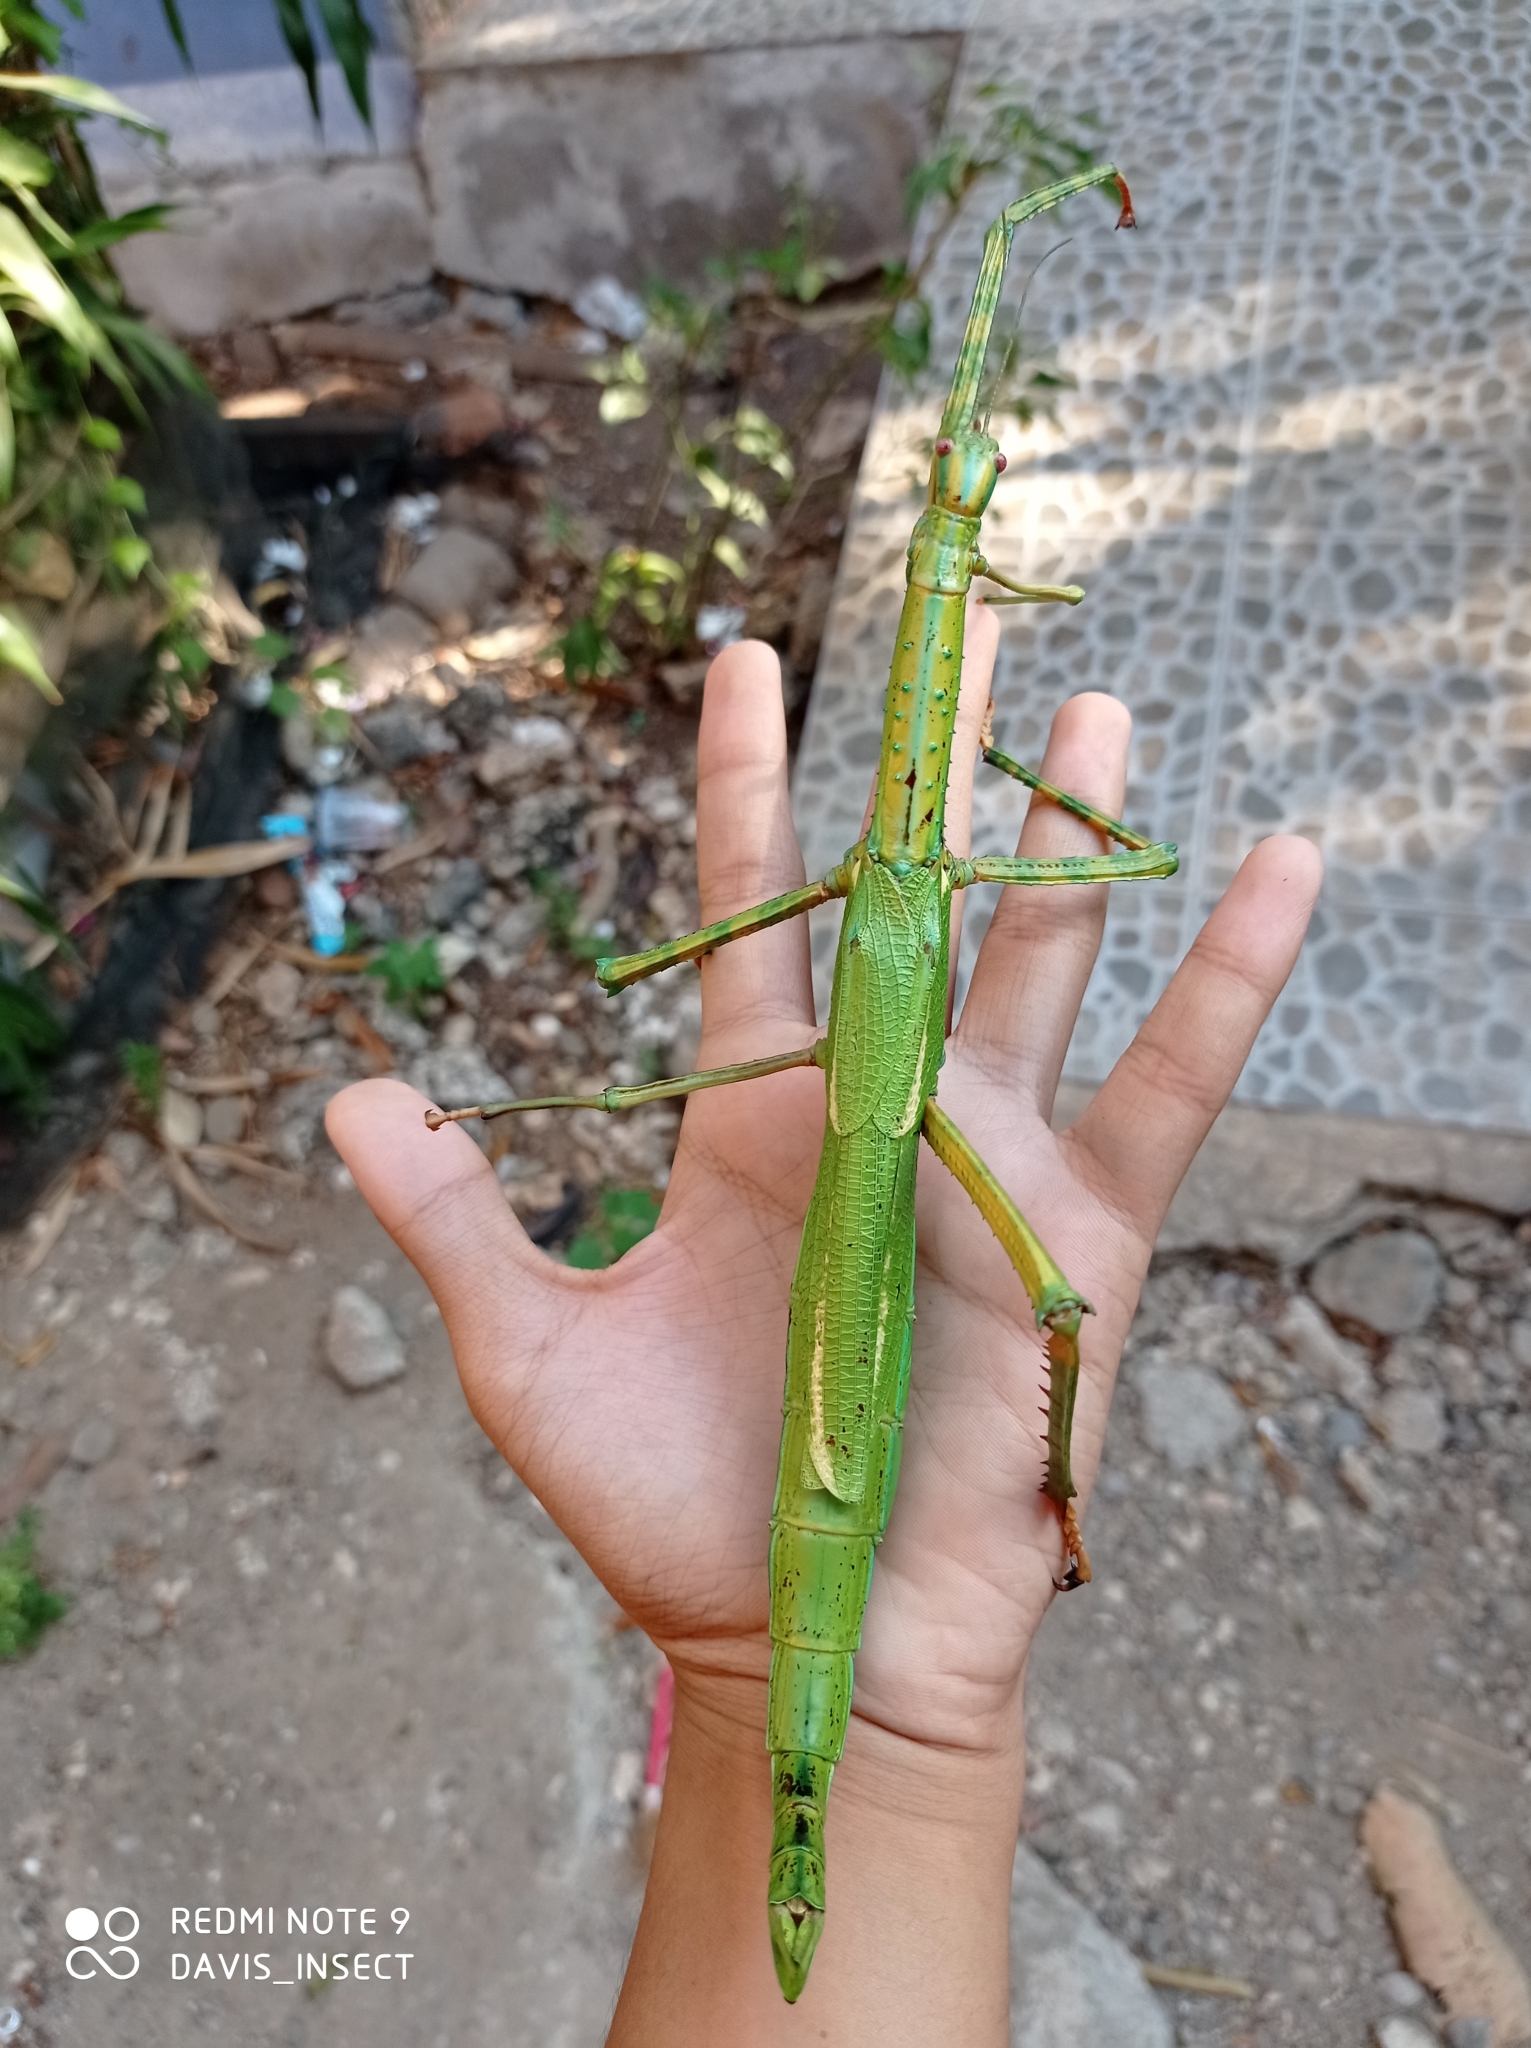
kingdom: Animalia
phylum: Arthropoda
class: Insecta
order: Phasmida
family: Phasmatidae
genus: Eurycnema
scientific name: Eurycnema versirubra
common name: Red-winged green giant stick-insect
